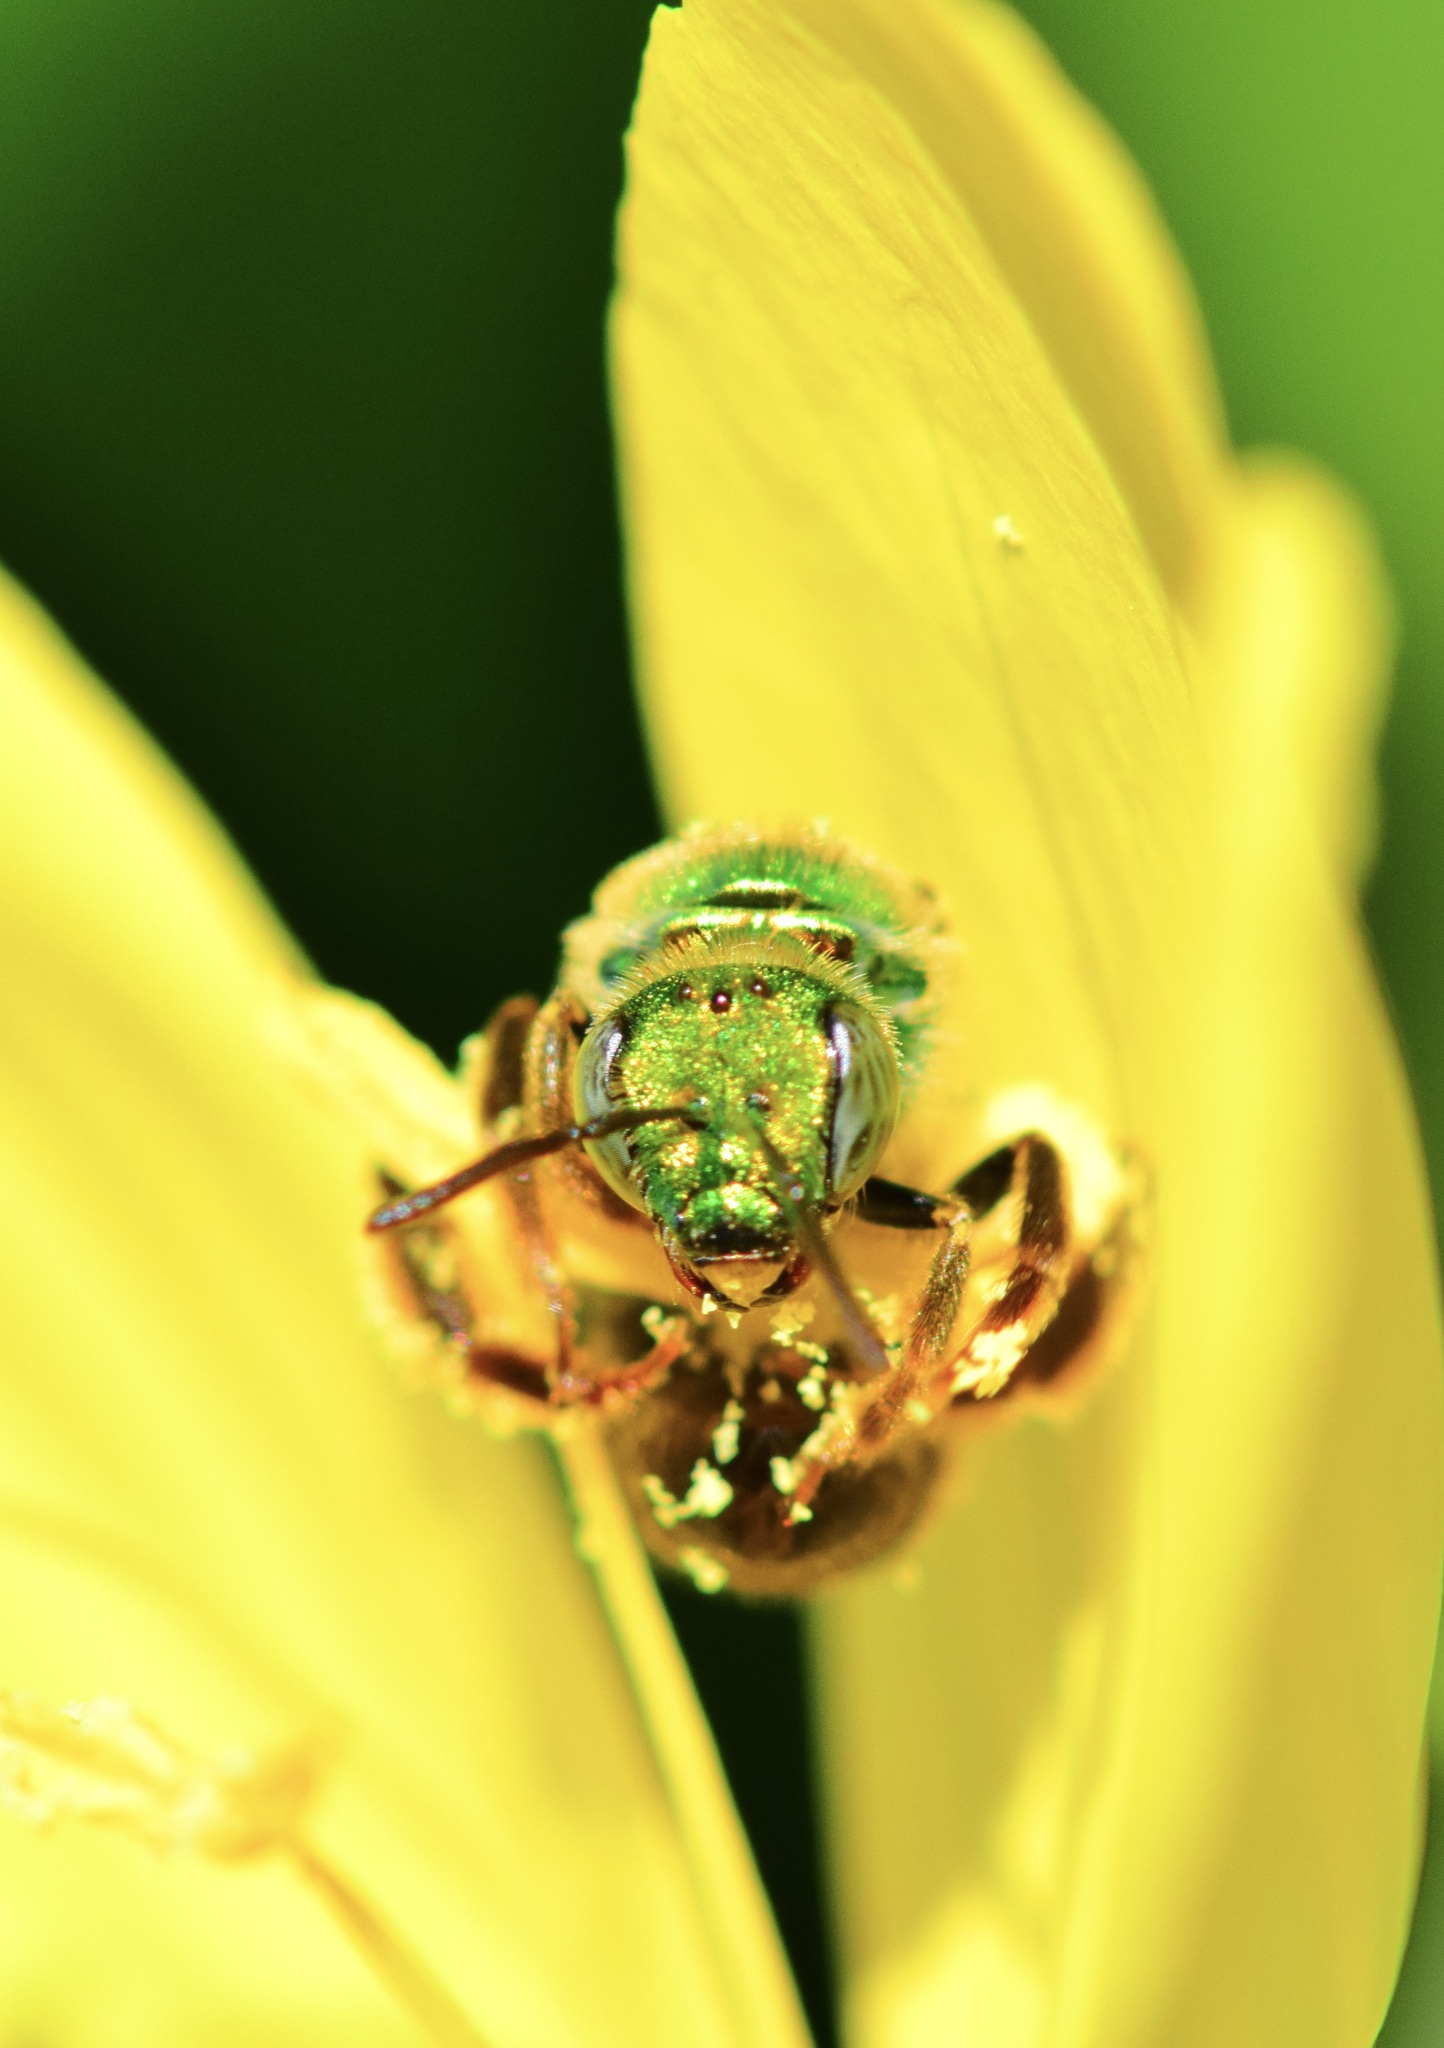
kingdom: Animalia
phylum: Arthropoda
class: Insecta
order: Hymenoptera
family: Halictidae
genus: Agapostemon
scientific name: Agapostemon virescens
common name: Bicolored striped sweat bee
